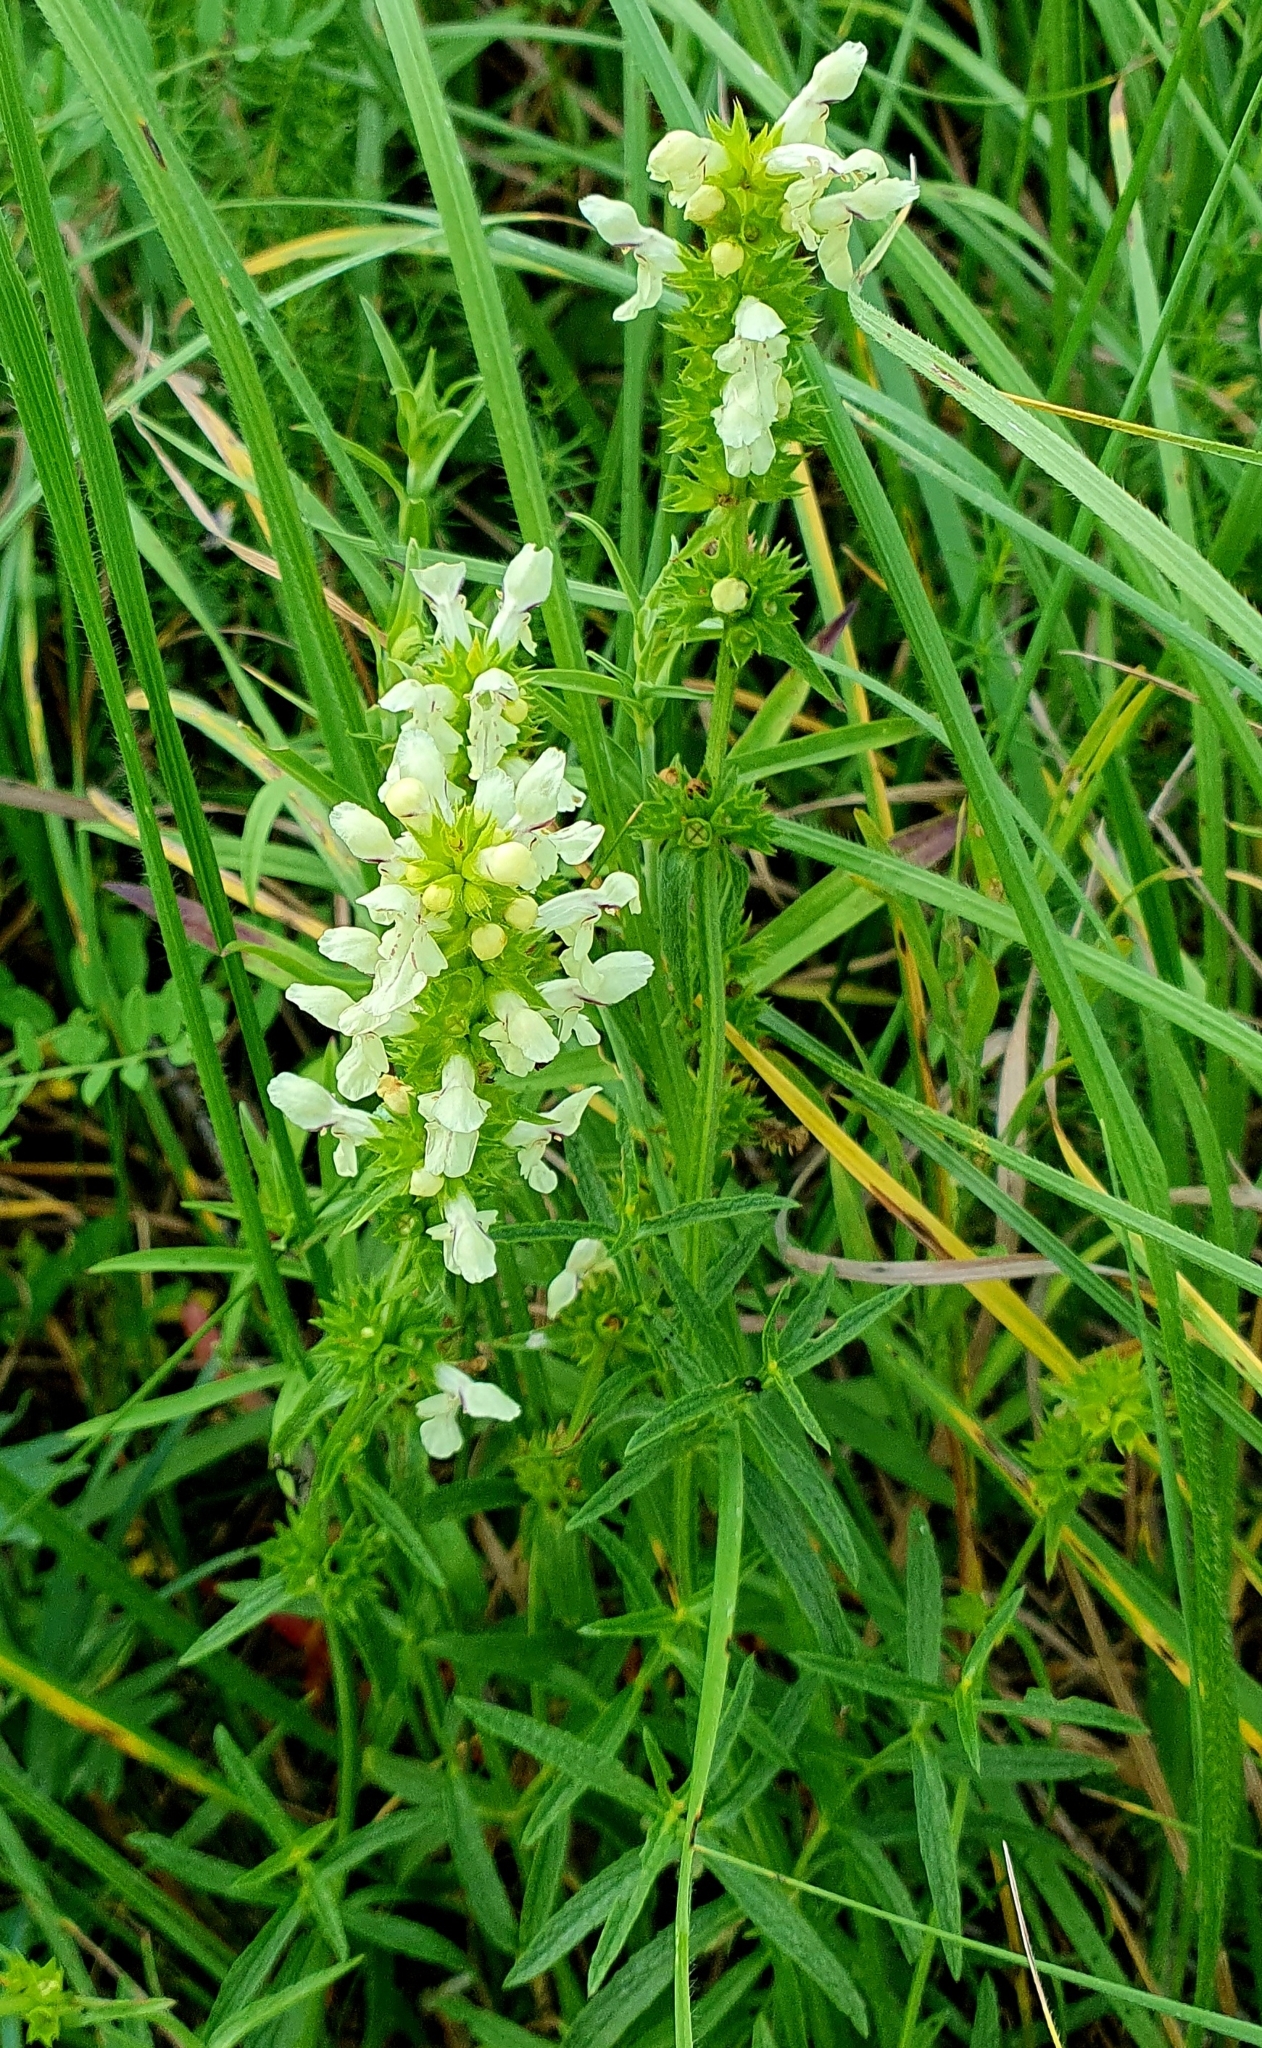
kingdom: Plantae
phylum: Tracheophyta
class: Magnoliopsida
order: Lamiales
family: Lamiaceae
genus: Stachys
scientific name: Stachys recta
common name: Perennial yellow-woundwort
